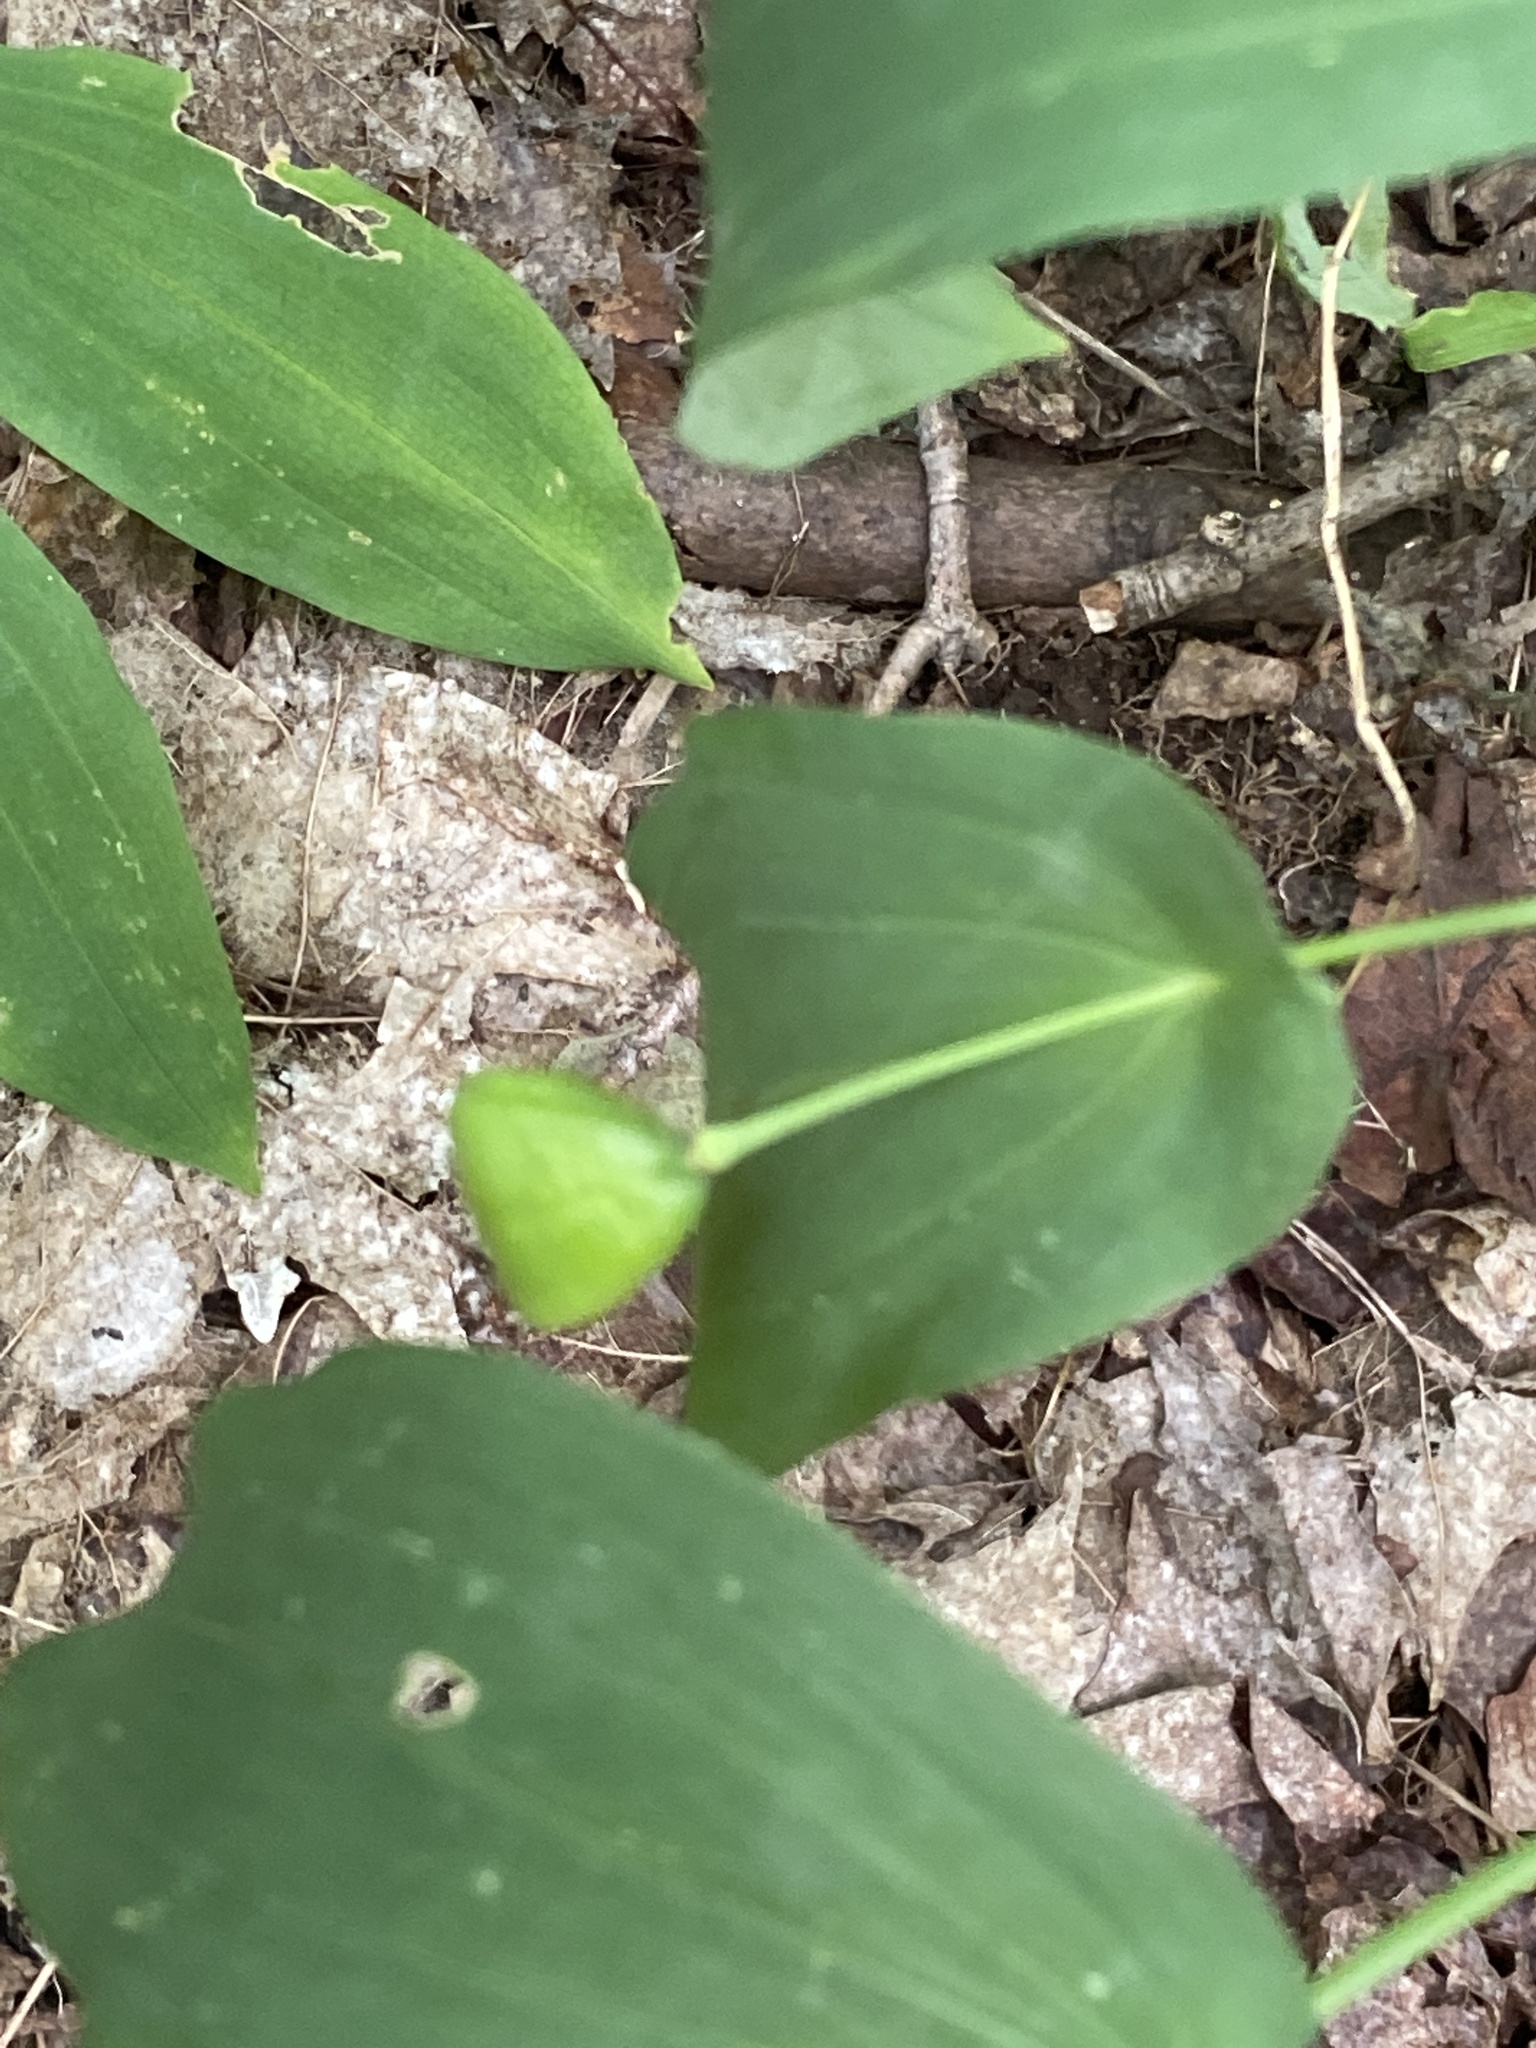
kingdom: Plantae
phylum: Tracheophyta
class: Liliopsida
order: Liliales
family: Colchicaceae
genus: Uvularia
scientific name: Uvularia grandiflora
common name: Bellwort
